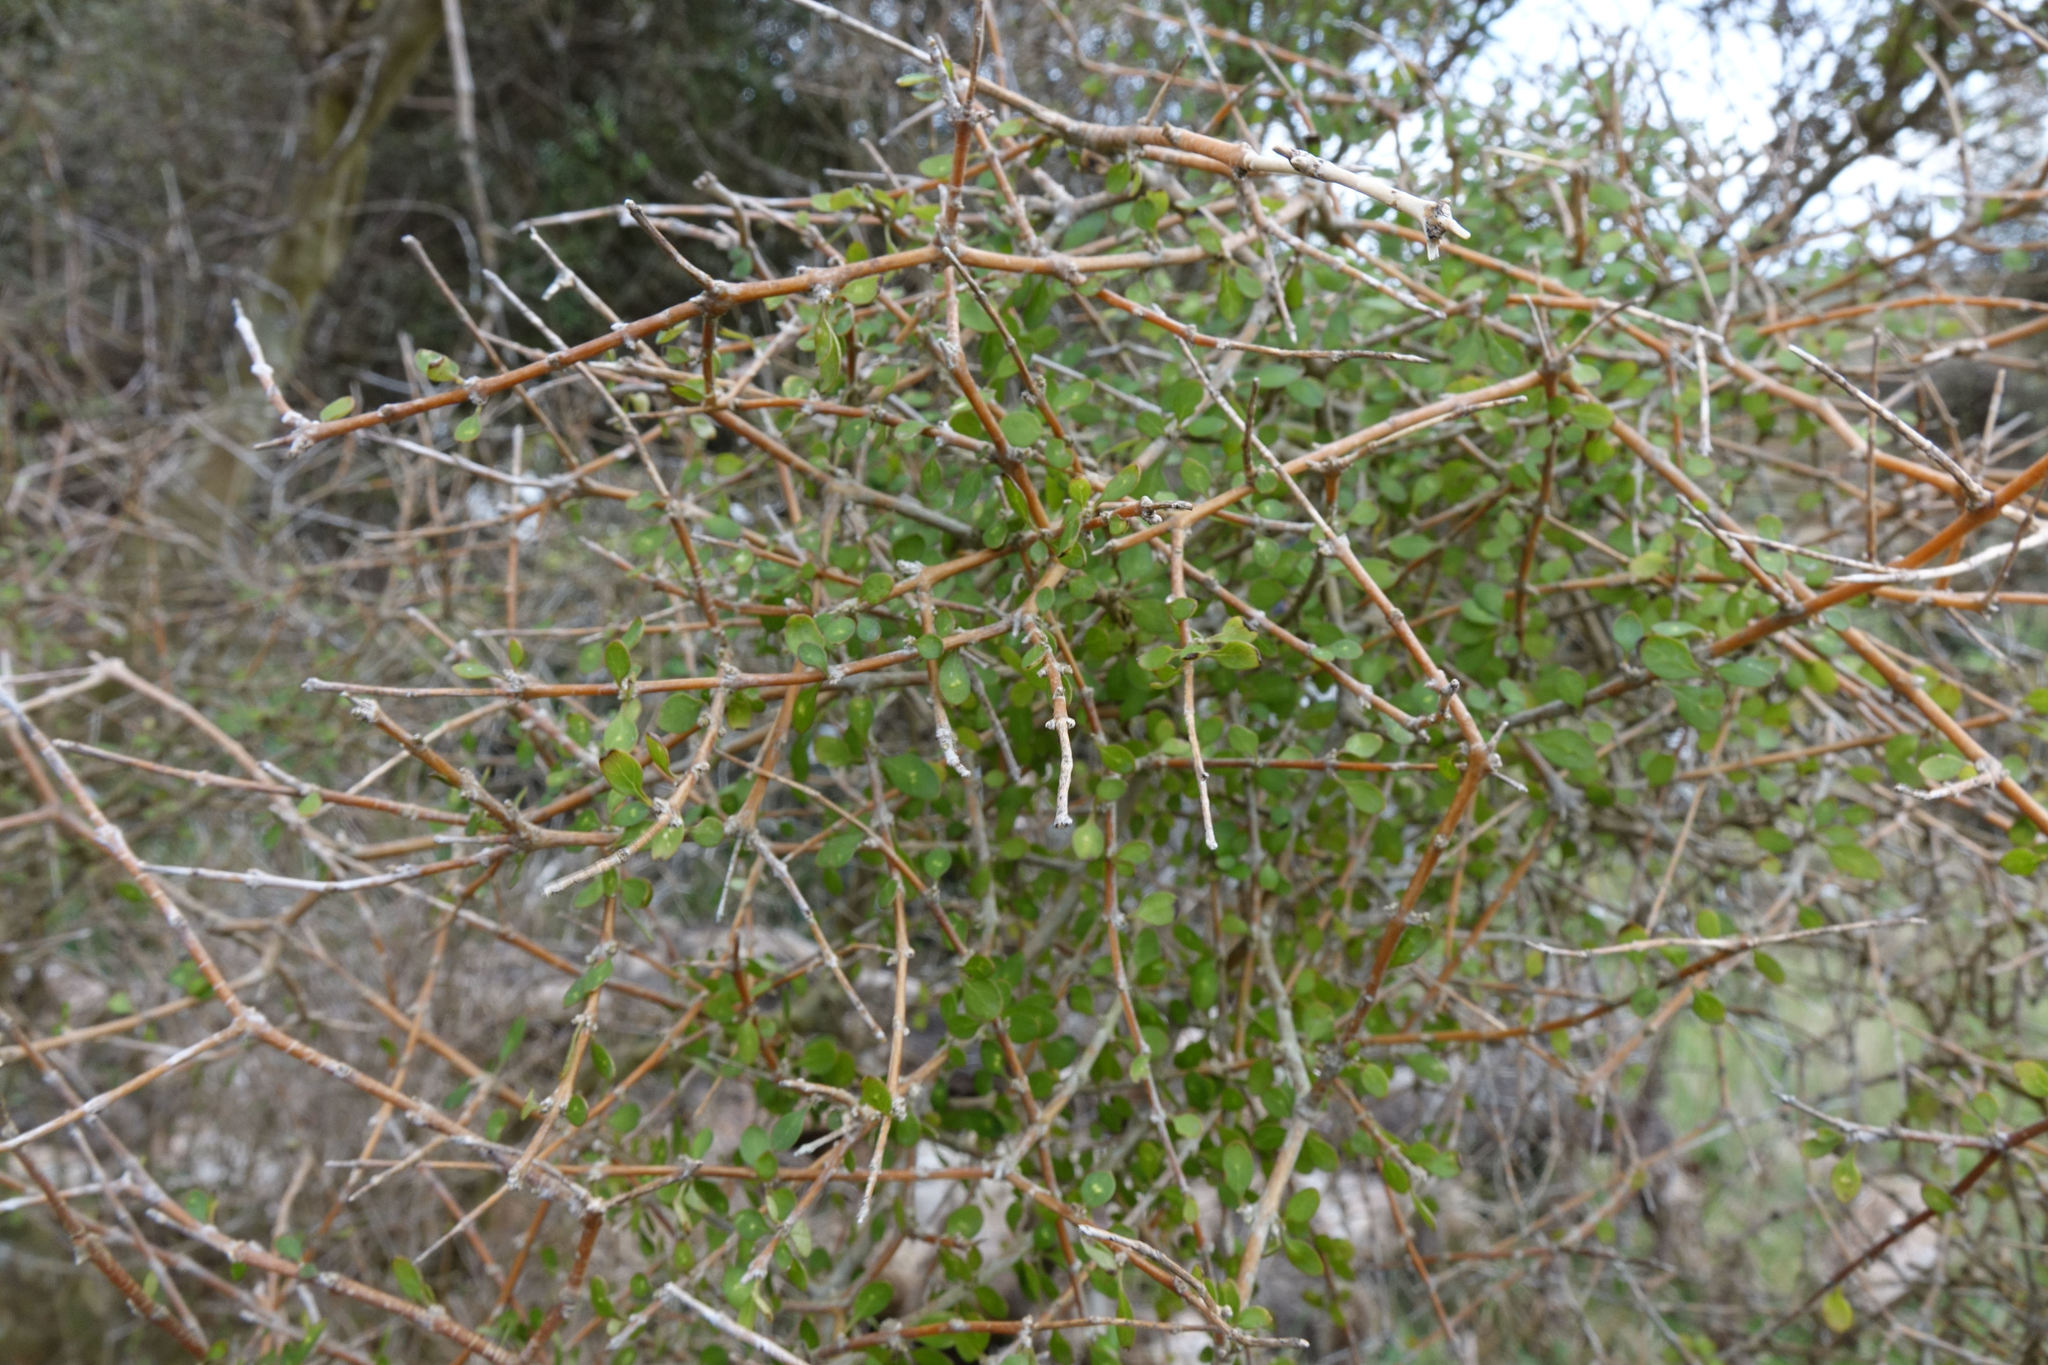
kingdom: Plantae
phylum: Tracheophyta
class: Magnoliopsida
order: Gentianales
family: Rubiaceae
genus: Coprosma
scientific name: Coprosma virescens
